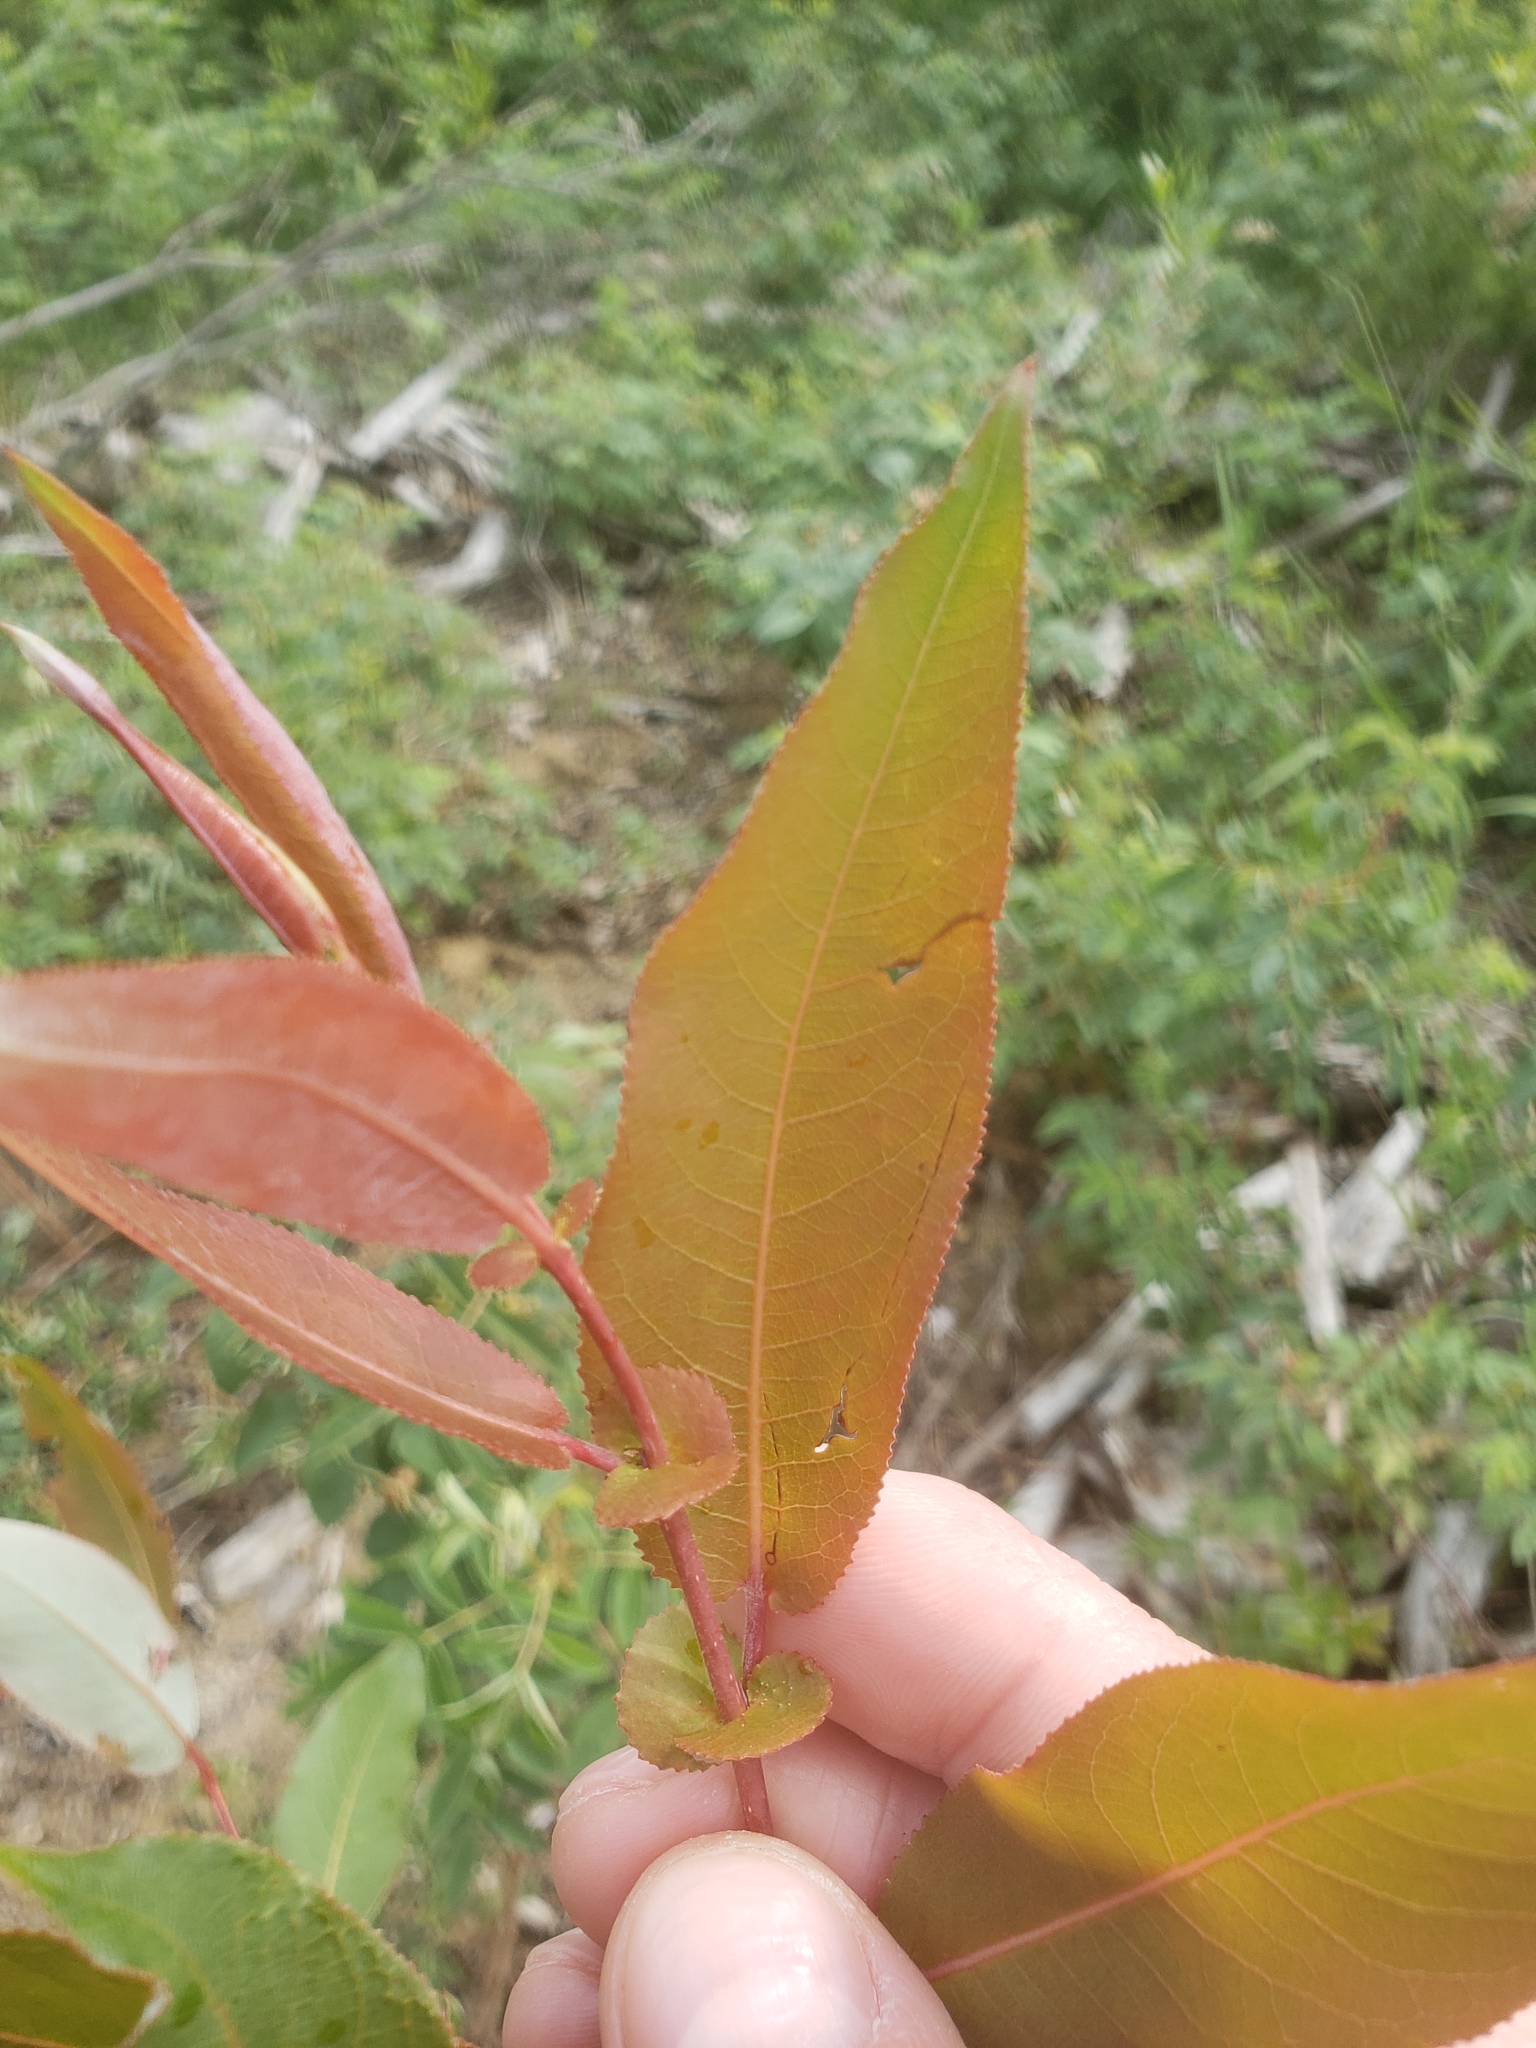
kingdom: Plantae
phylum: Tracheophyta
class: Magnoliopsida
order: Malpighiales
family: Salicaceae
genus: Salix
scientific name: Salix prolixa
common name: Mackenzie's willow
